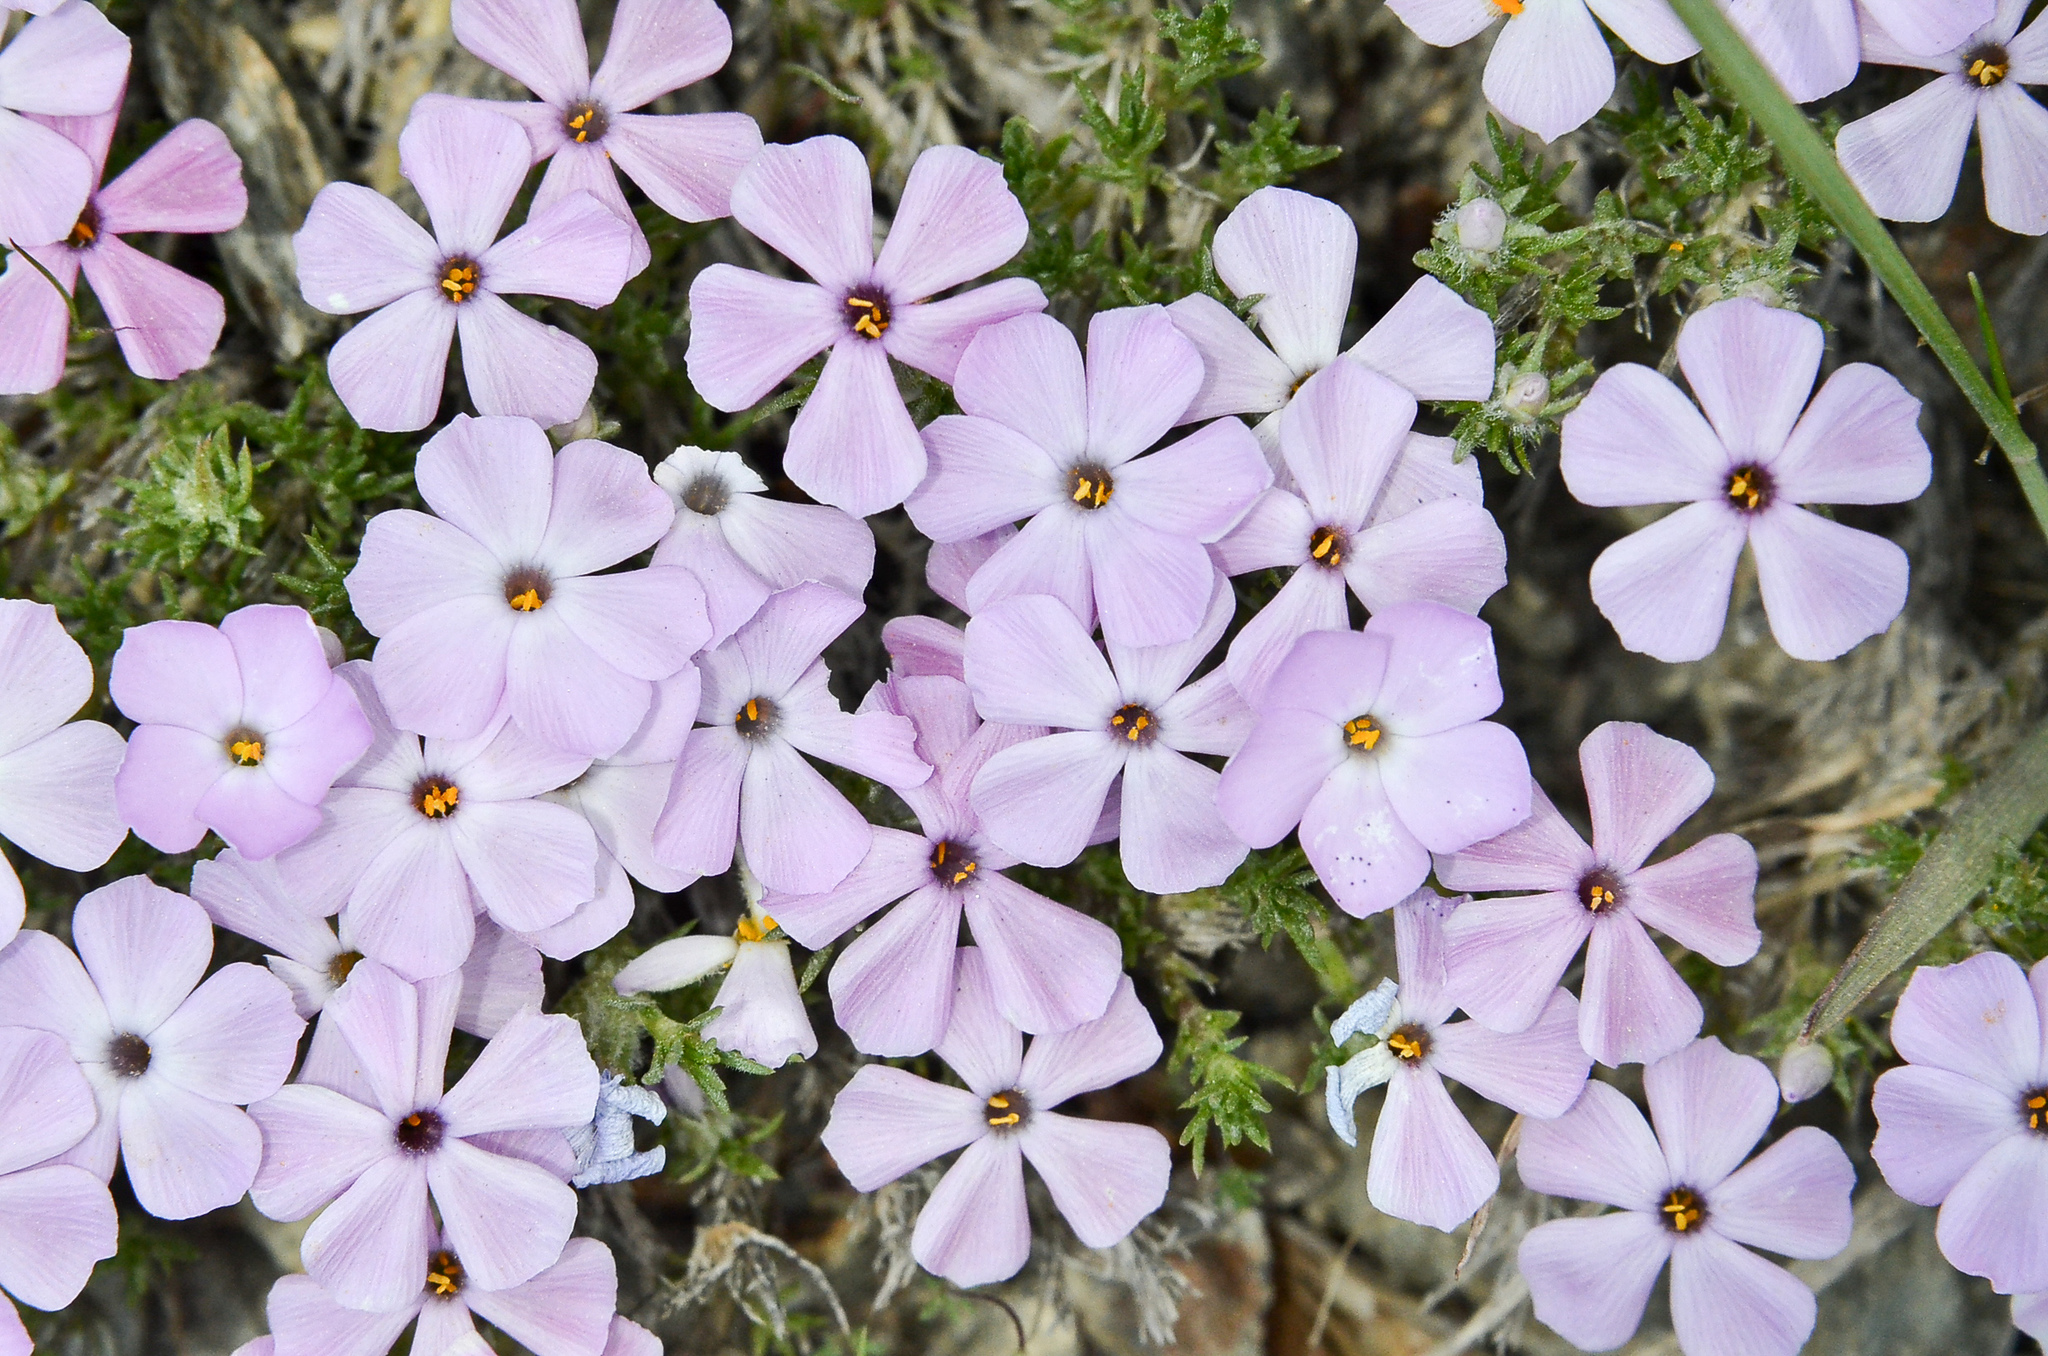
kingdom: Plantae
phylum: Tracheophyta
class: Magnoliopsida
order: Ericales
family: Polemoniaceae
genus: Phlox
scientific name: Phlox diffusa
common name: Mat phlox
